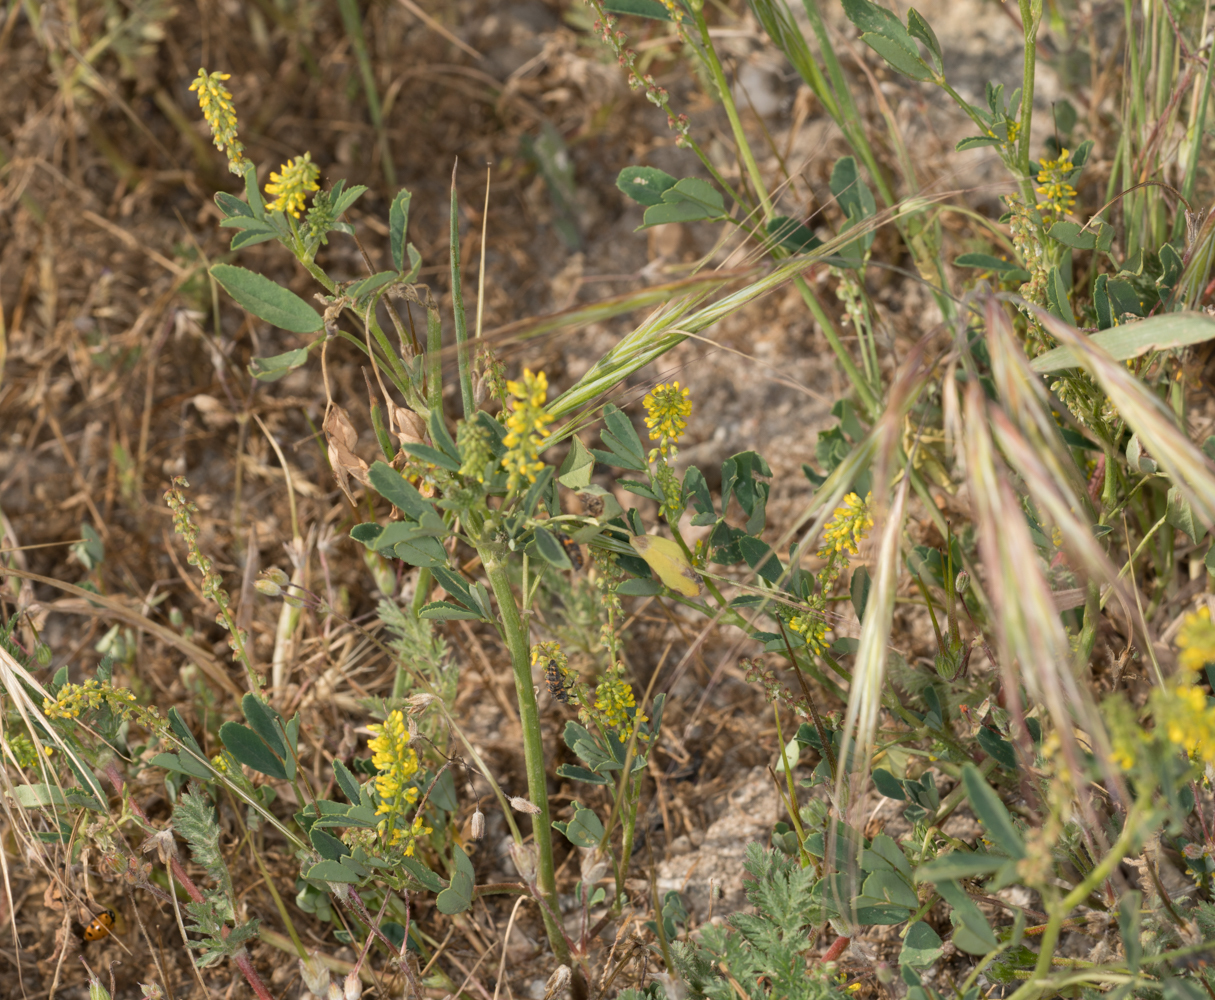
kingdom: Plantae
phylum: Tracheophyta
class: Magnoliopsida
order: Fabales
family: Fabaceae
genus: Melilotus
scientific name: Melilotus indicus
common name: Small melilot
